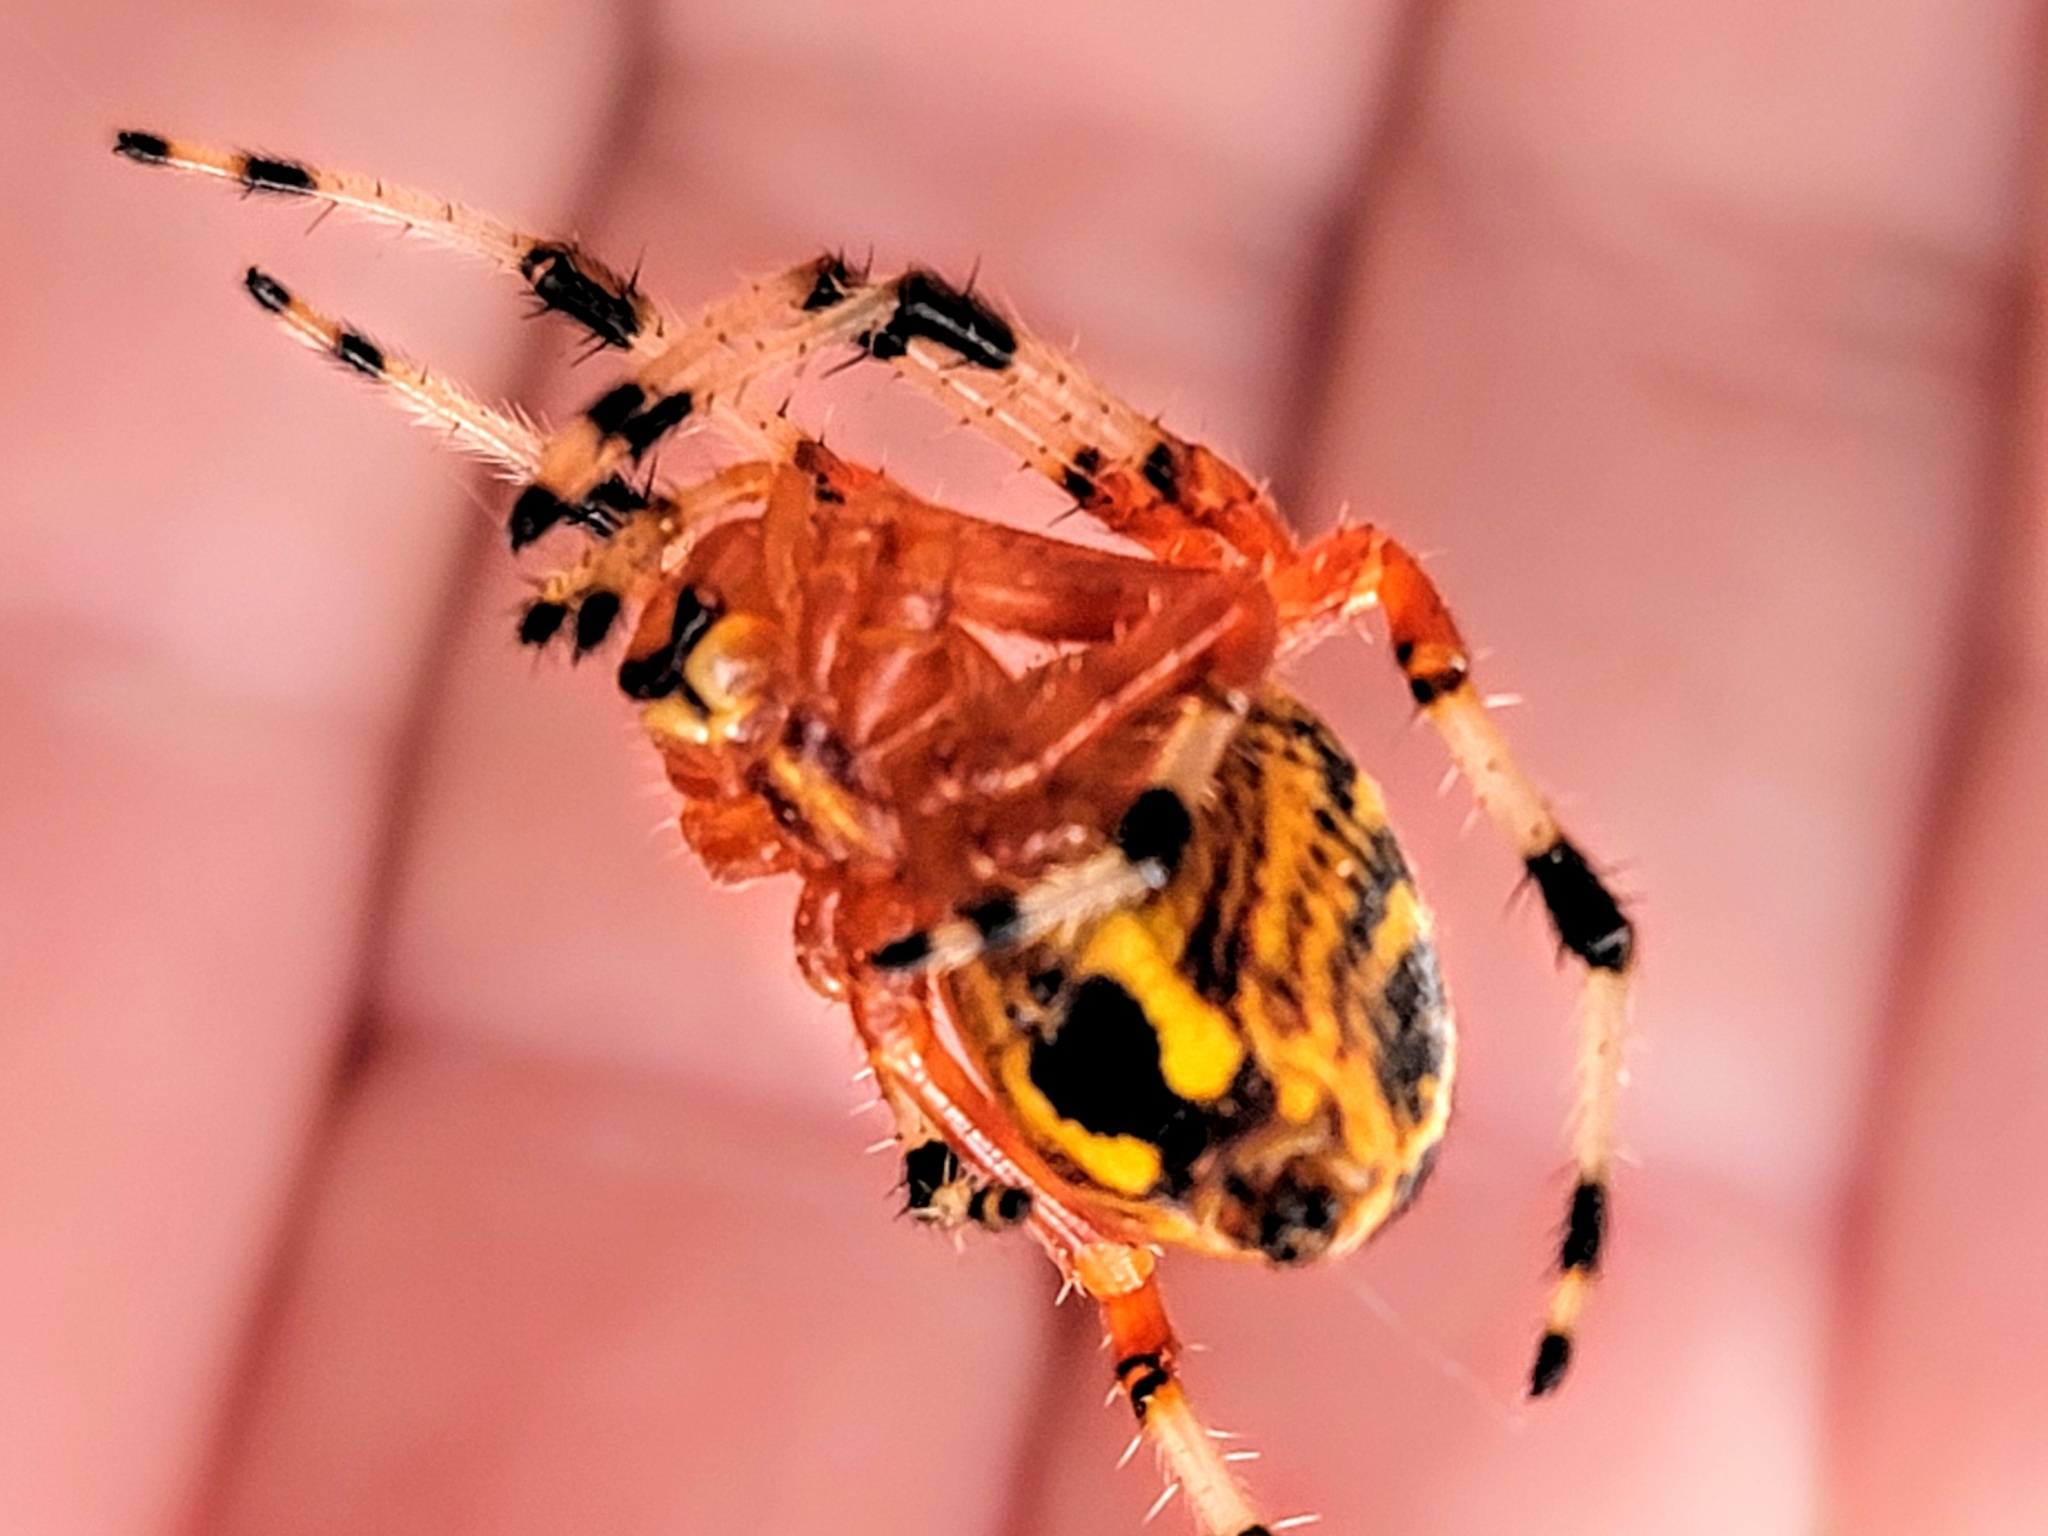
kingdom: Animalia
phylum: Arthropoda
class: Arachnida
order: Araneae
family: Araneidae
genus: Araneus
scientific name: Araneus marmoreus
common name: Marbled orbweaver
